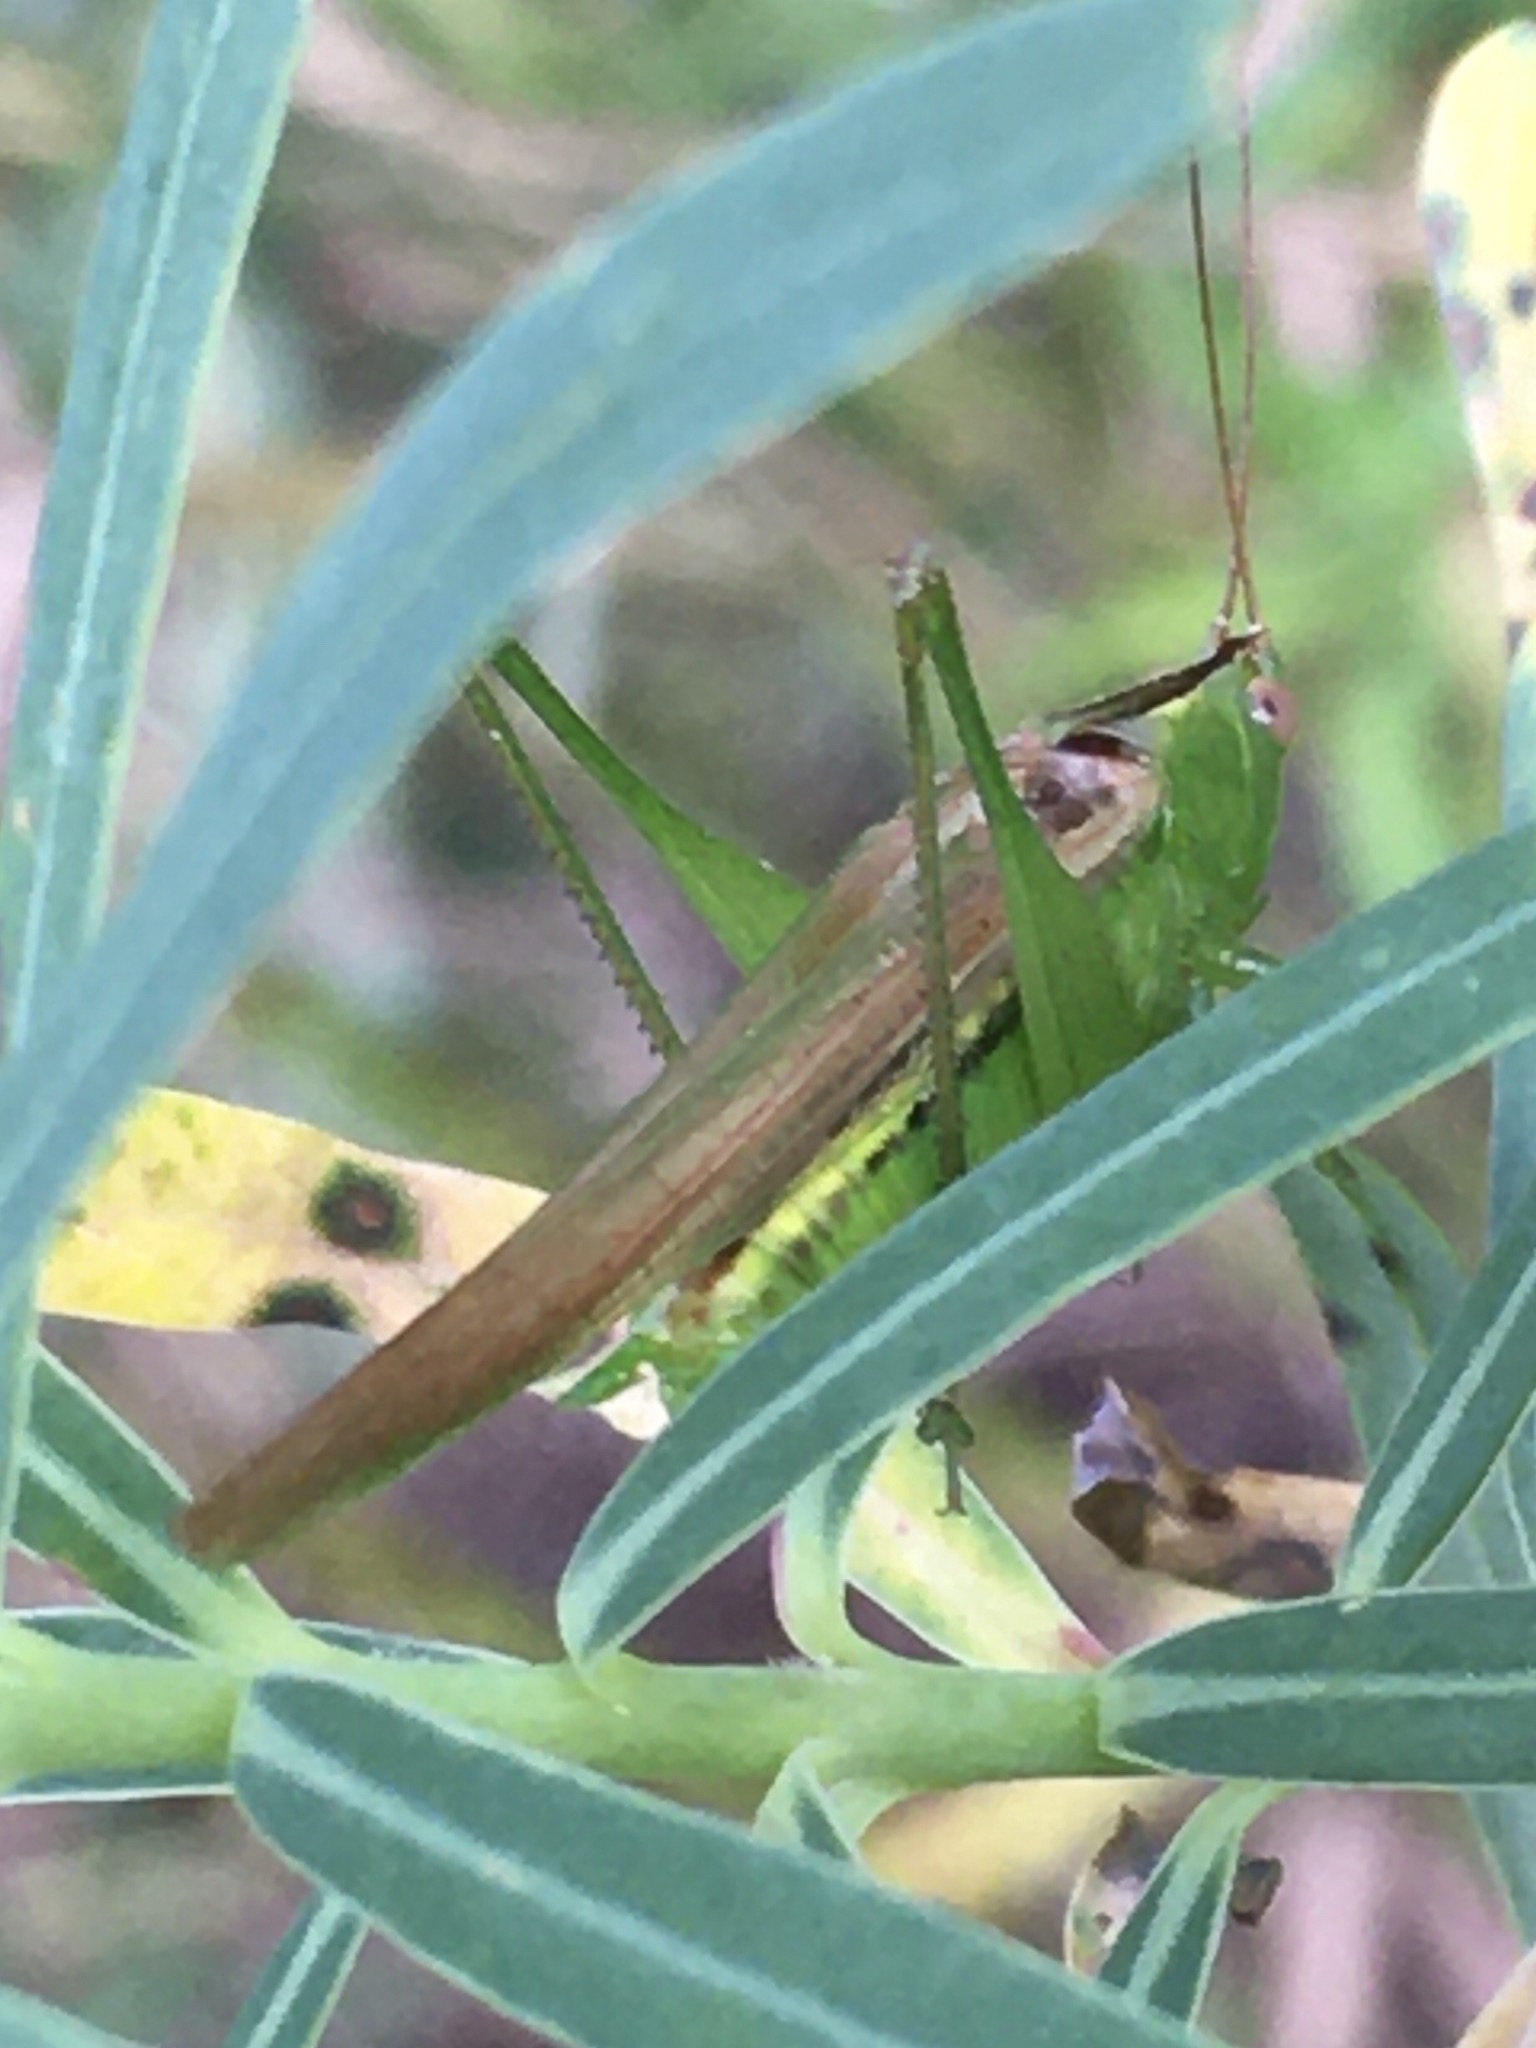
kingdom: Animalia
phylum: Arthropoda
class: Insecta
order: Orthoptera
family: Tettigoniidae
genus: Conocephalus
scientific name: Conocephalus fasciatus
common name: Slender meadow katydid
